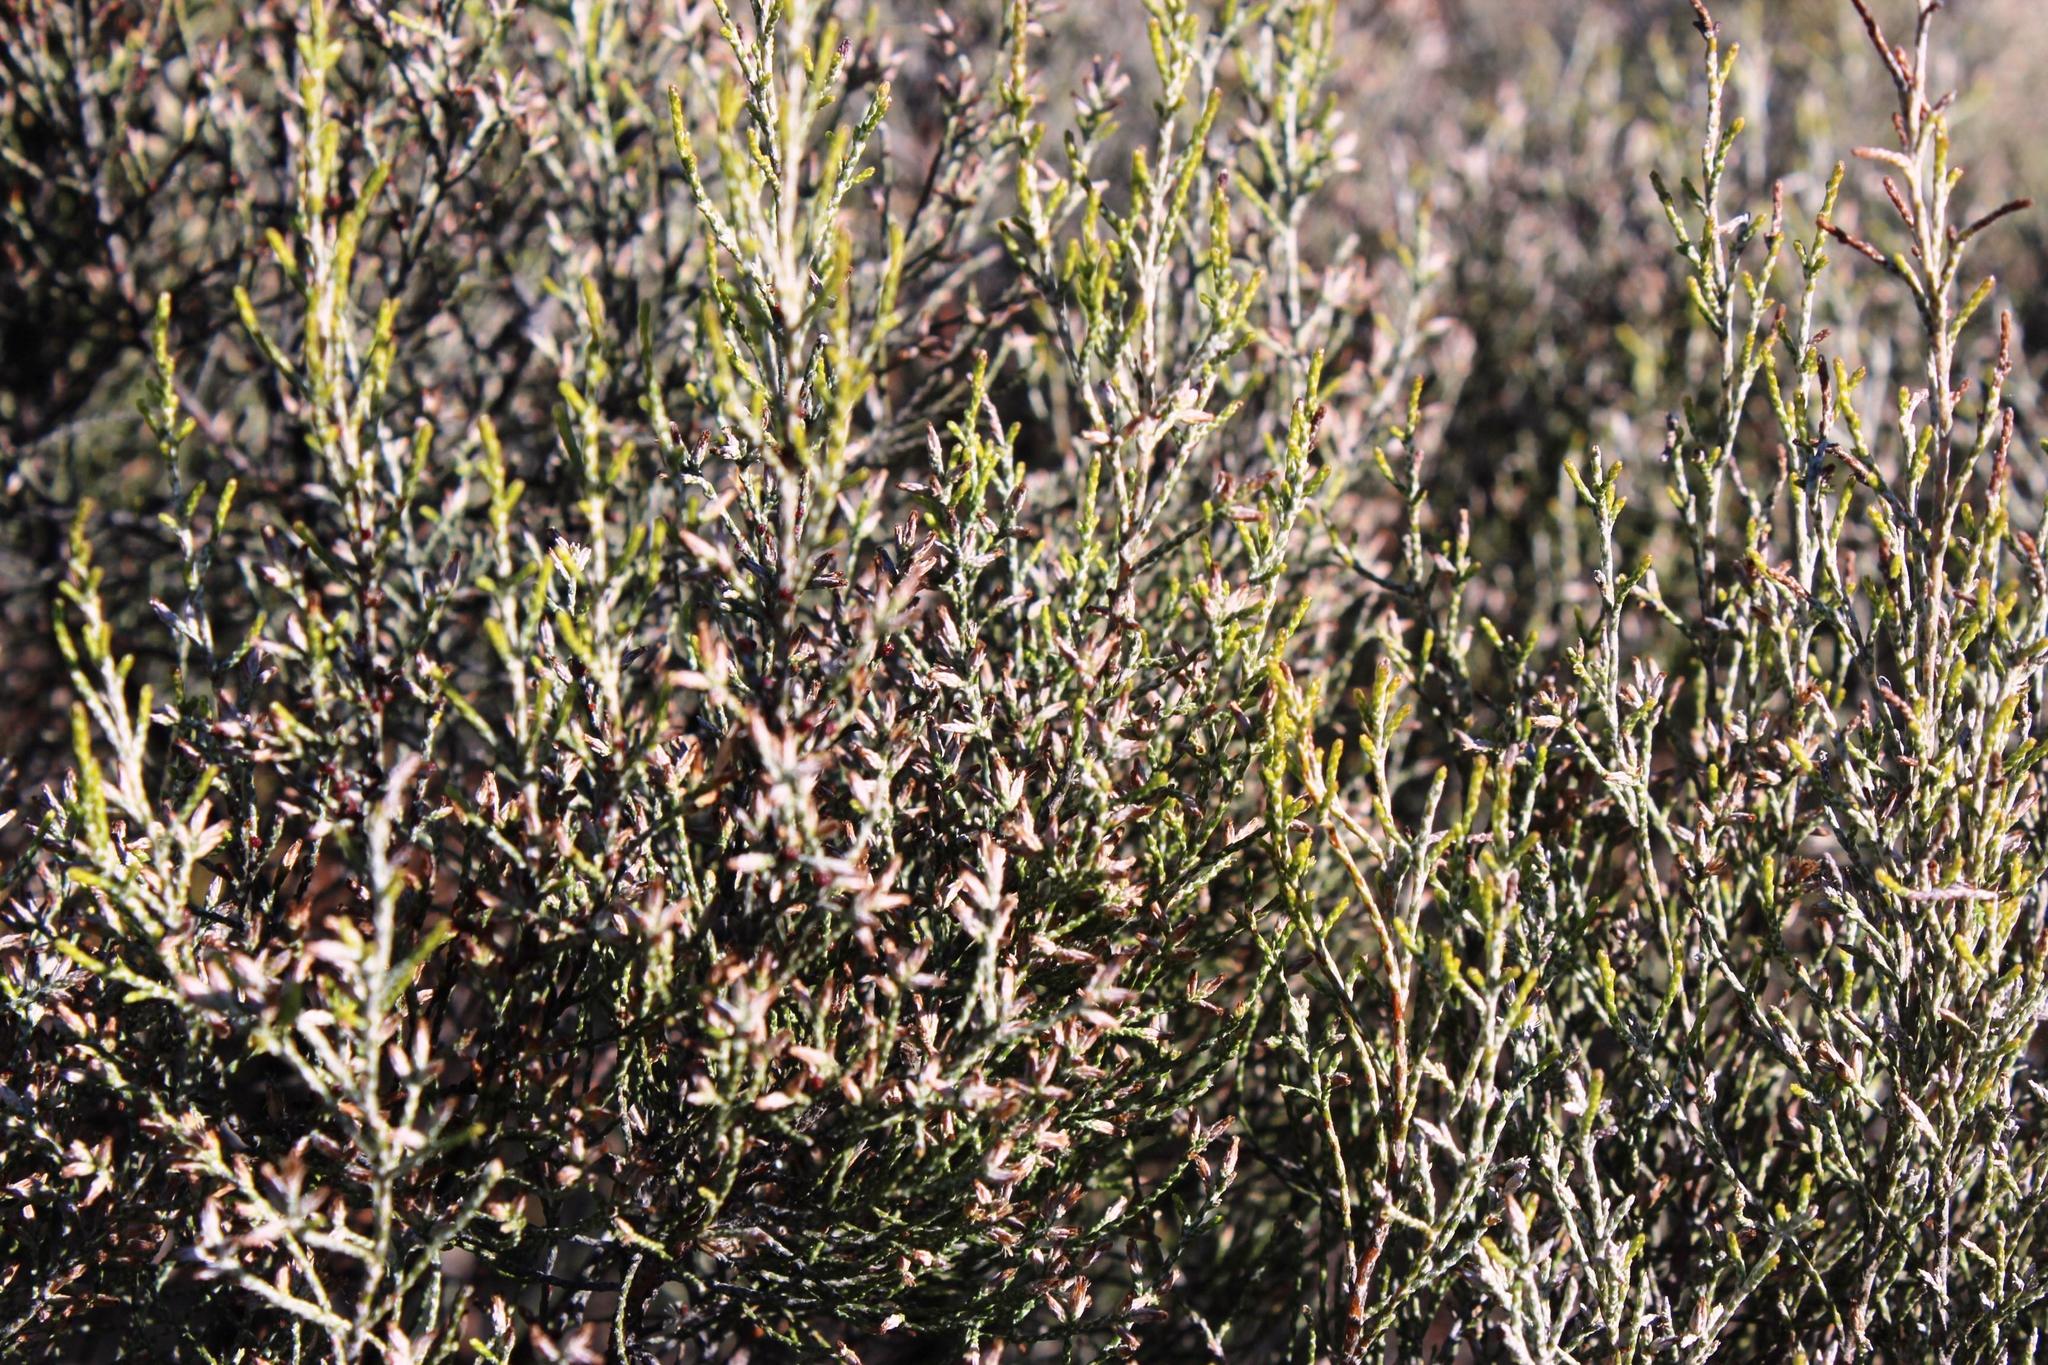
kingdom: Plantae
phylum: Tracheophyta
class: Magnoliopsida
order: Asterales
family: Asteraceae
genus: Dicerothamnus
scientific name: Dicerothamnus rhinocerotis
